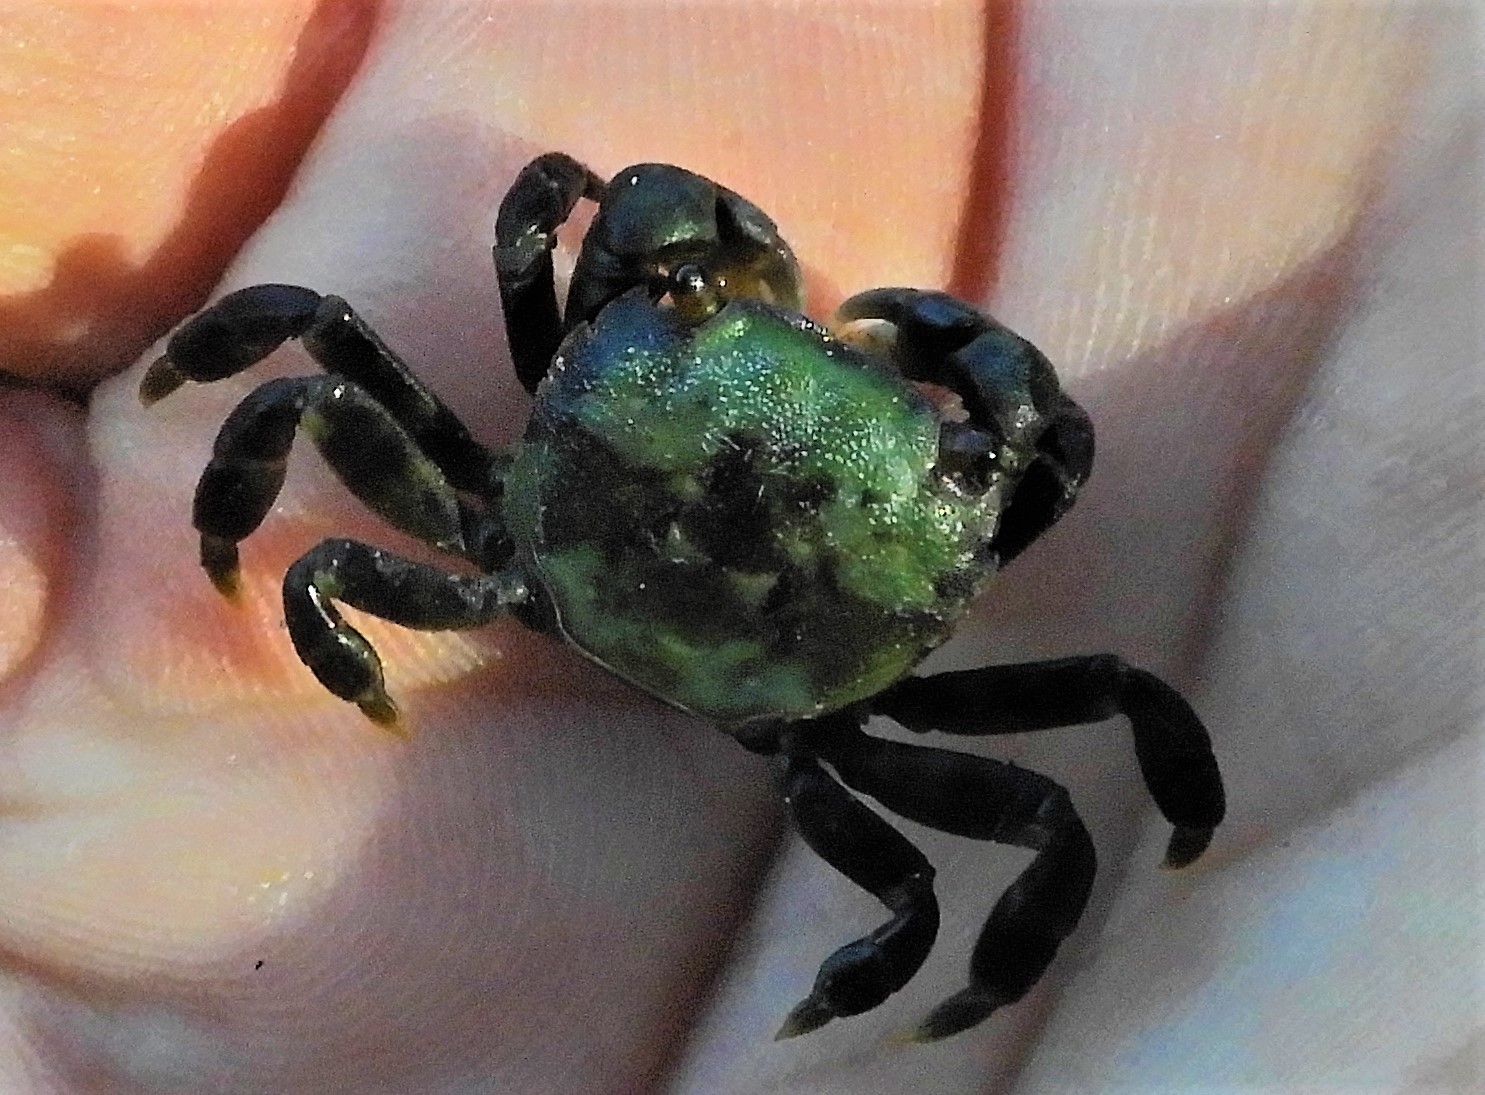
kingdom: Animalia
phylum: Arthropoda
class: Malacostraca
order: Decapoda
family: Varunidae
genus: Hemigrapsus
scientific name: Hemigrapsus nudus
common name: Purple shore crab
